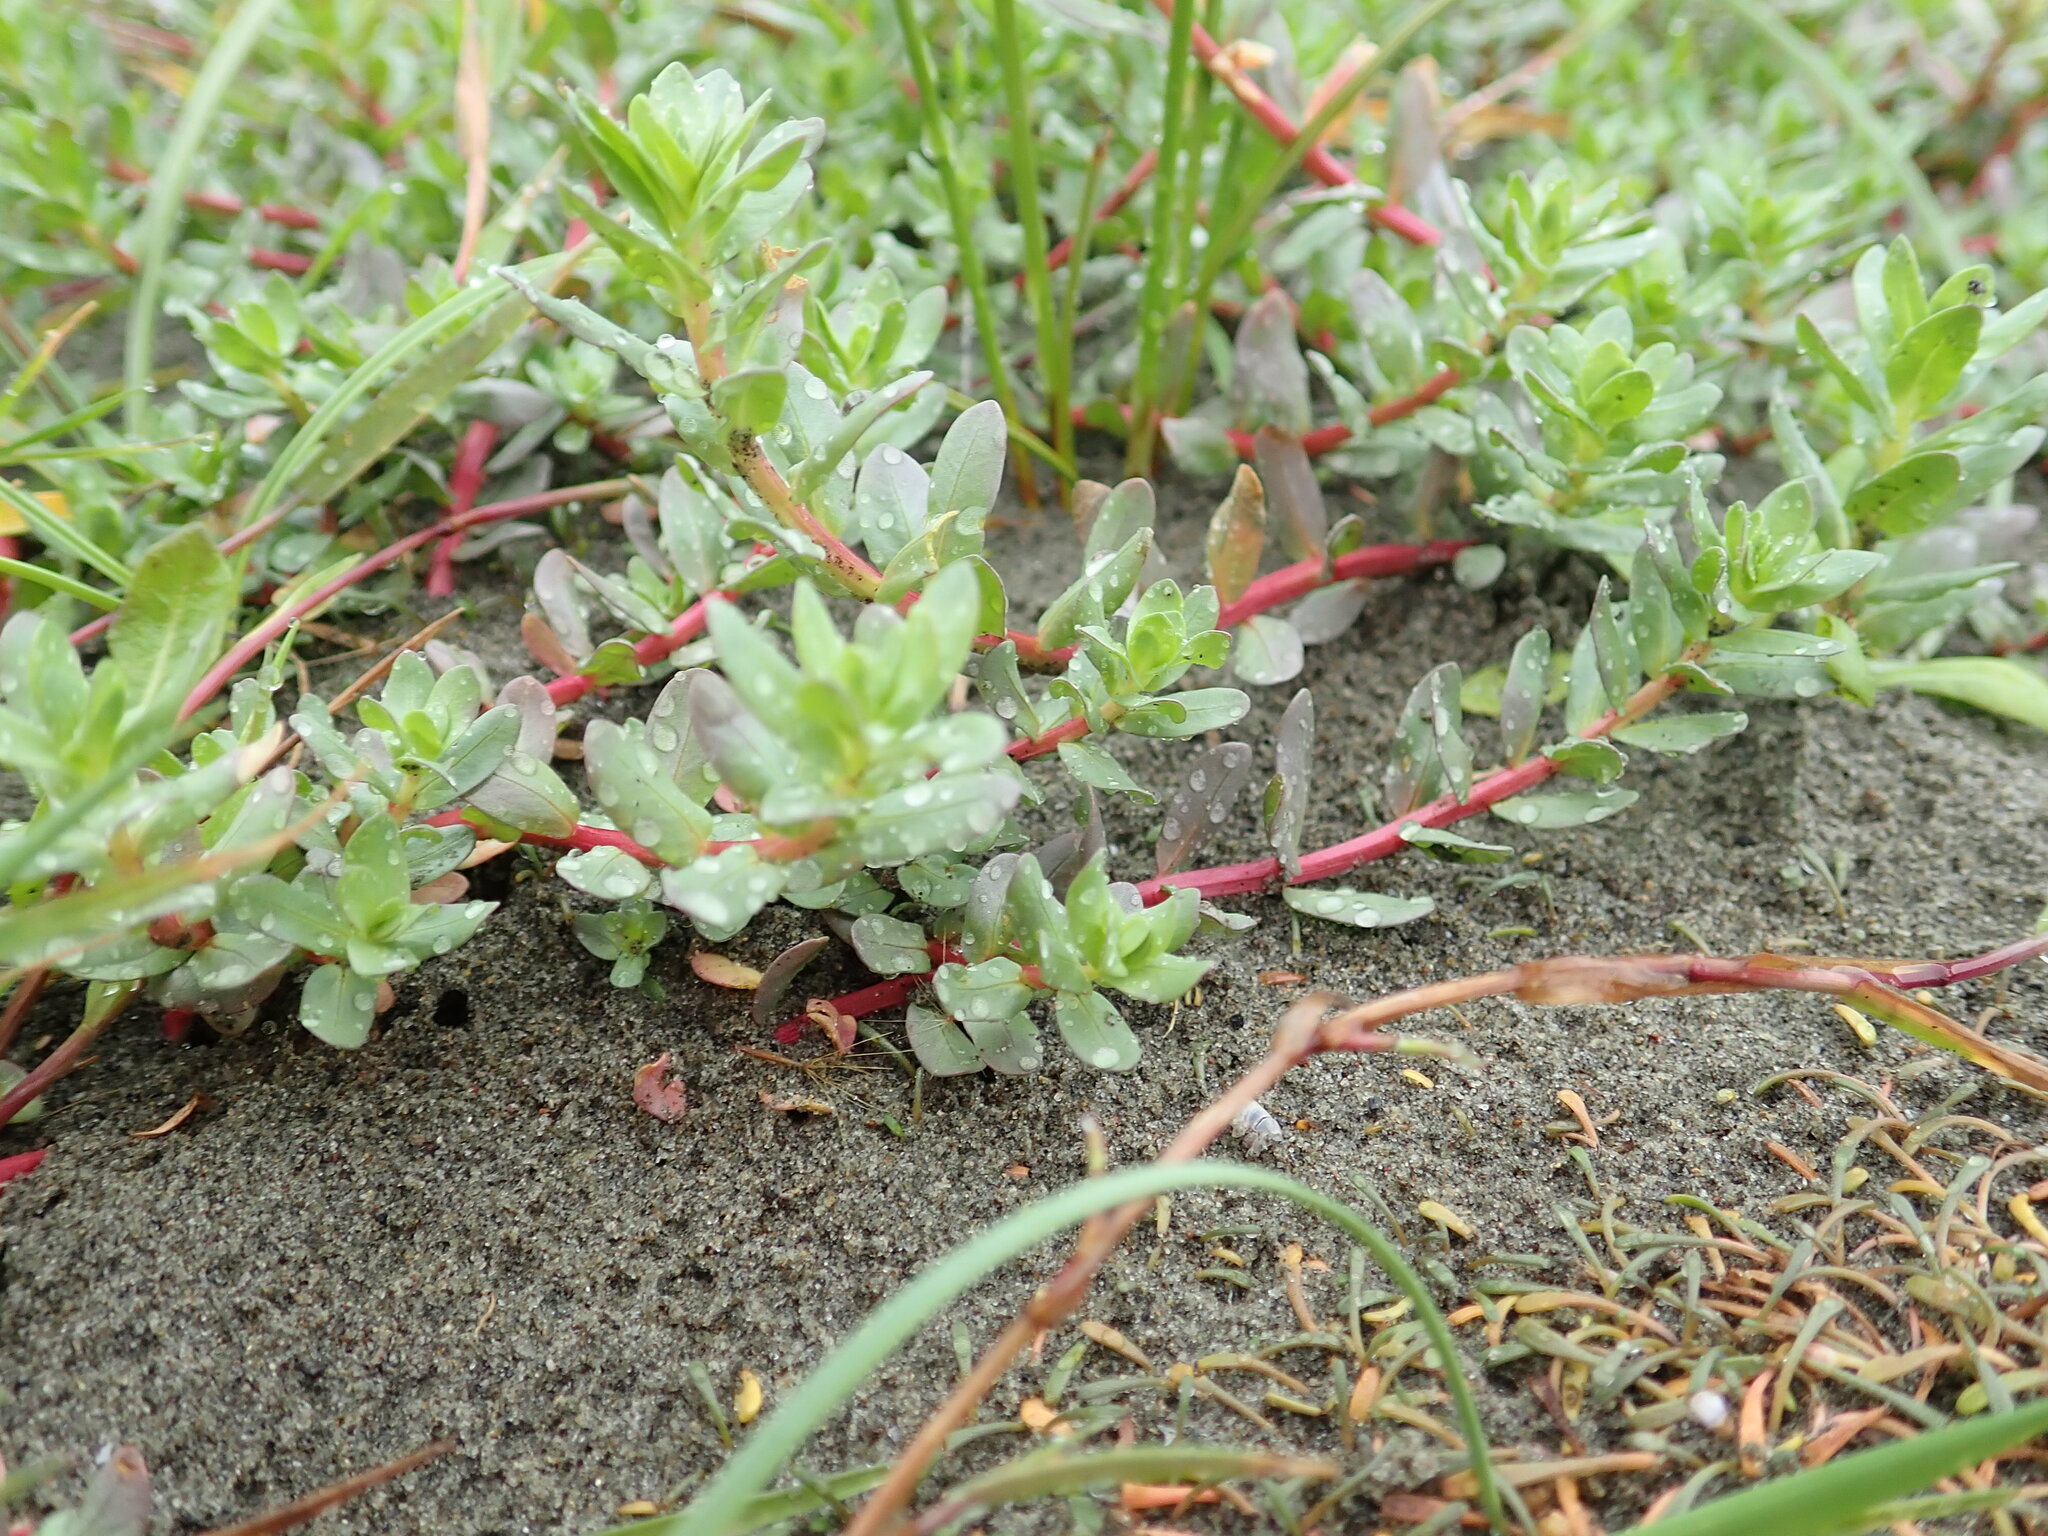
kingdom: Plantae
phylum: Tracheophyta
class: Magnoliopsida
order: Myrtales
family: Lythraceae
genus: Lythrum
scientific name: Lythrum hyssopifolia
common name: Grass-poly
